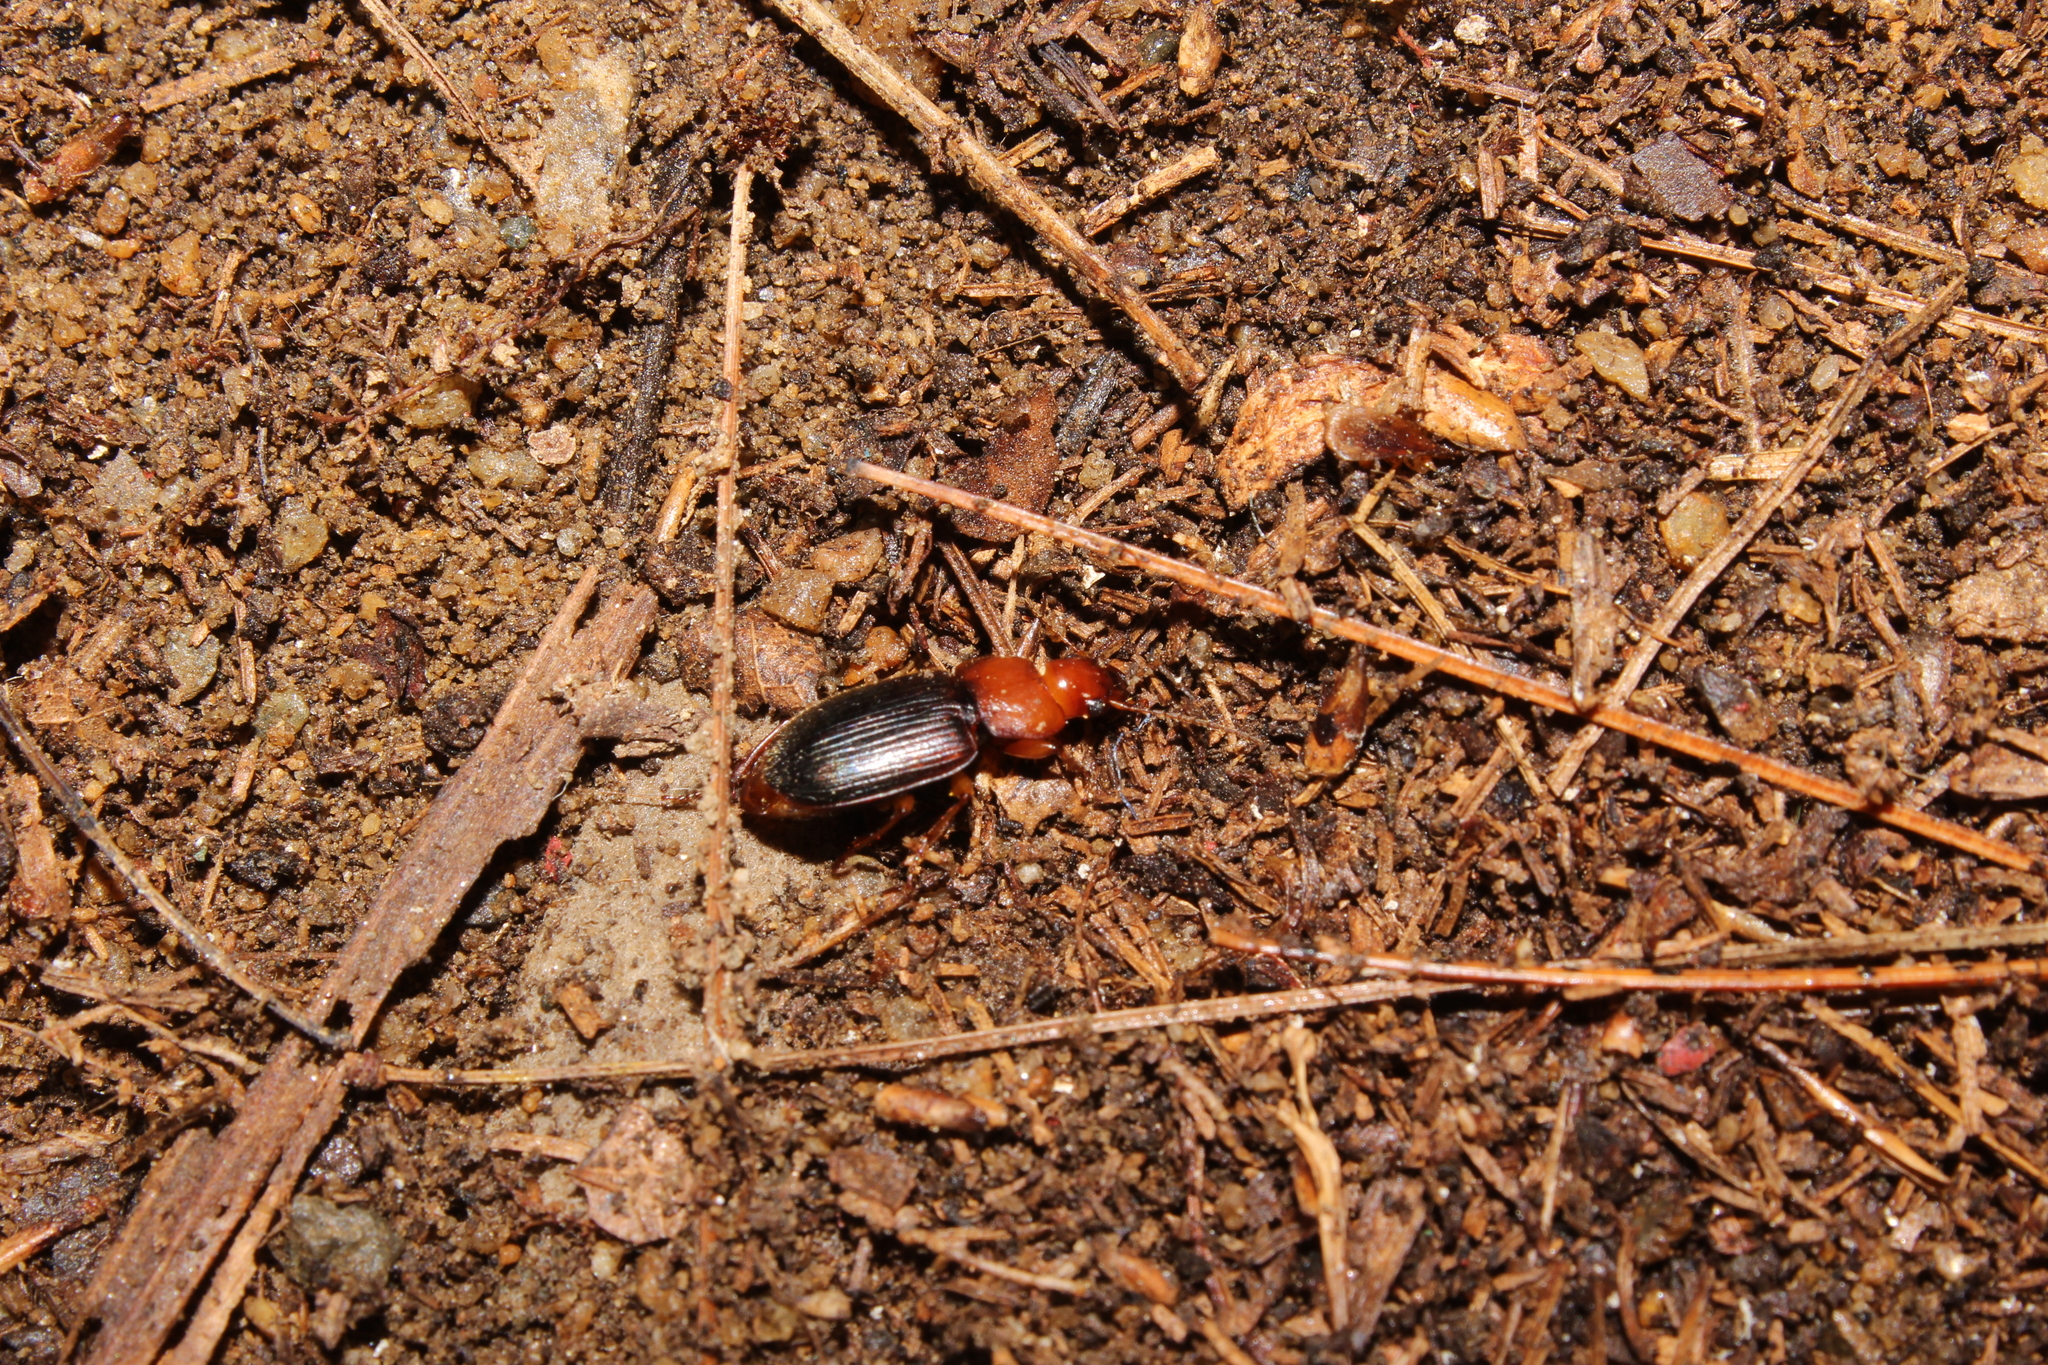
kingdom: Animalia
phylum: Arthropoda
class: Insecta
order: Coleoptera
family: Carabidae
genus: Amphasia
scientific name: Amphasia interstitialis
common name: Red-headed ground beetle
